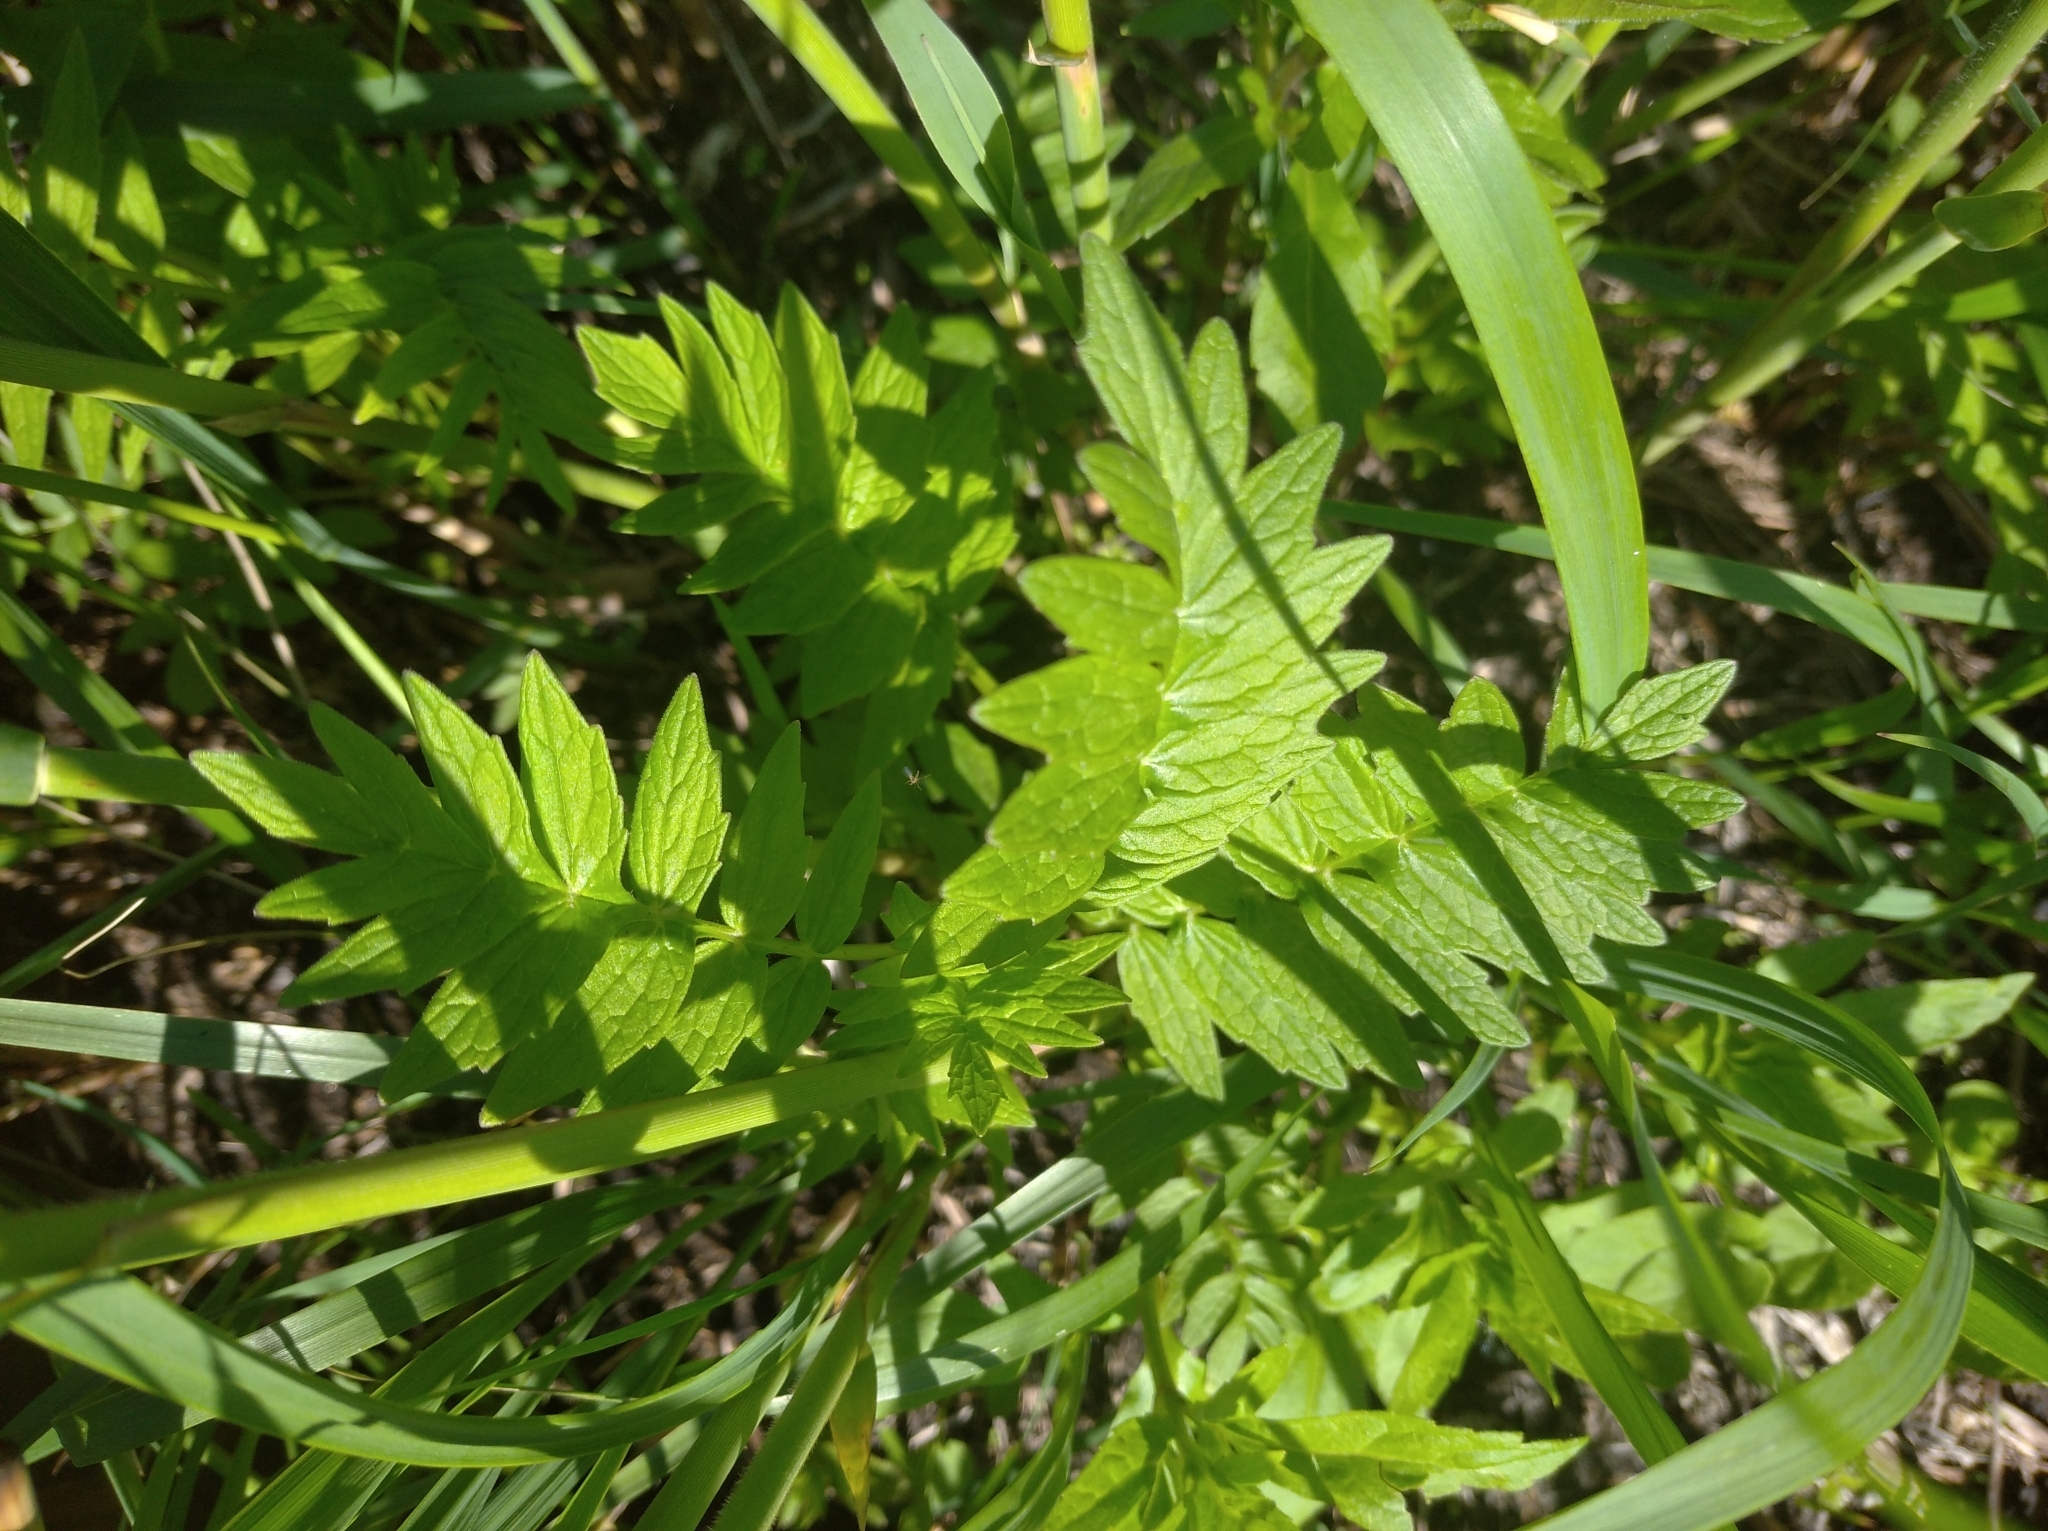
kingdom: Plantae
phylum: Tracheophyta
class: Magnoliopsida
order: Dipsacales
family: Caprifoliaceae
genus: Valeriana
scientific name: Valeriana officinalis
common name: Common valerian
